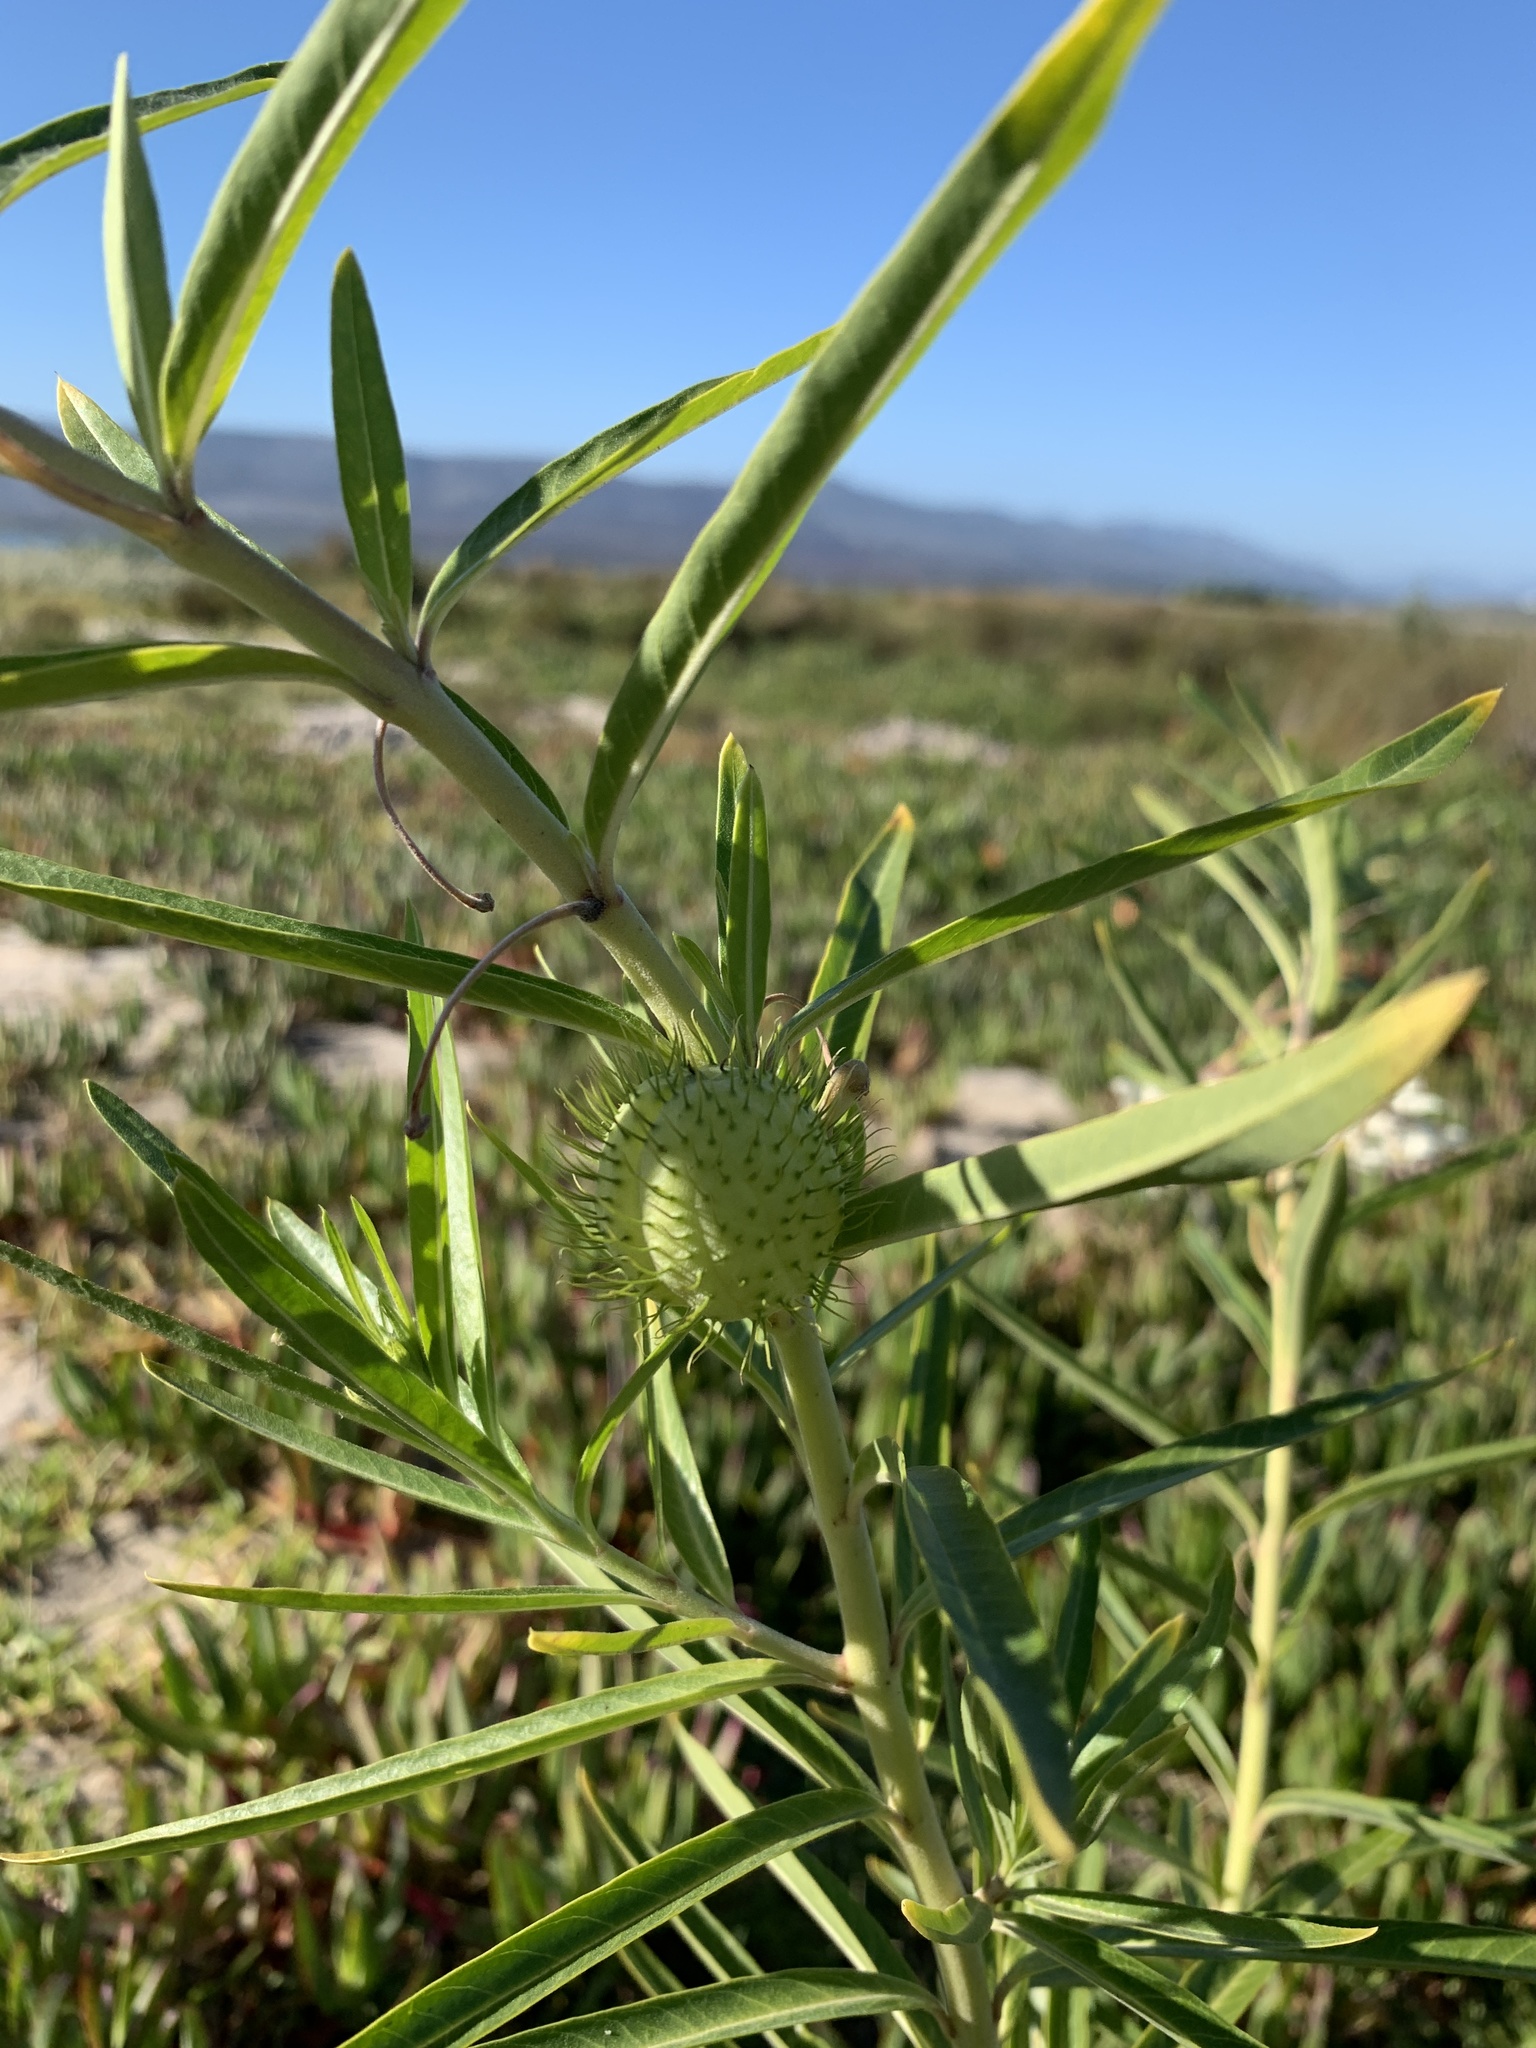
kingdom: Plantae
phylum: Tracheophyta
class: Magnoliopsida
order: Gentianales
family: Apocynaceae
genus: Gomphocarpus
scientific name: Gomphocarpus physocarpus
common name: Balloon cotton bush
